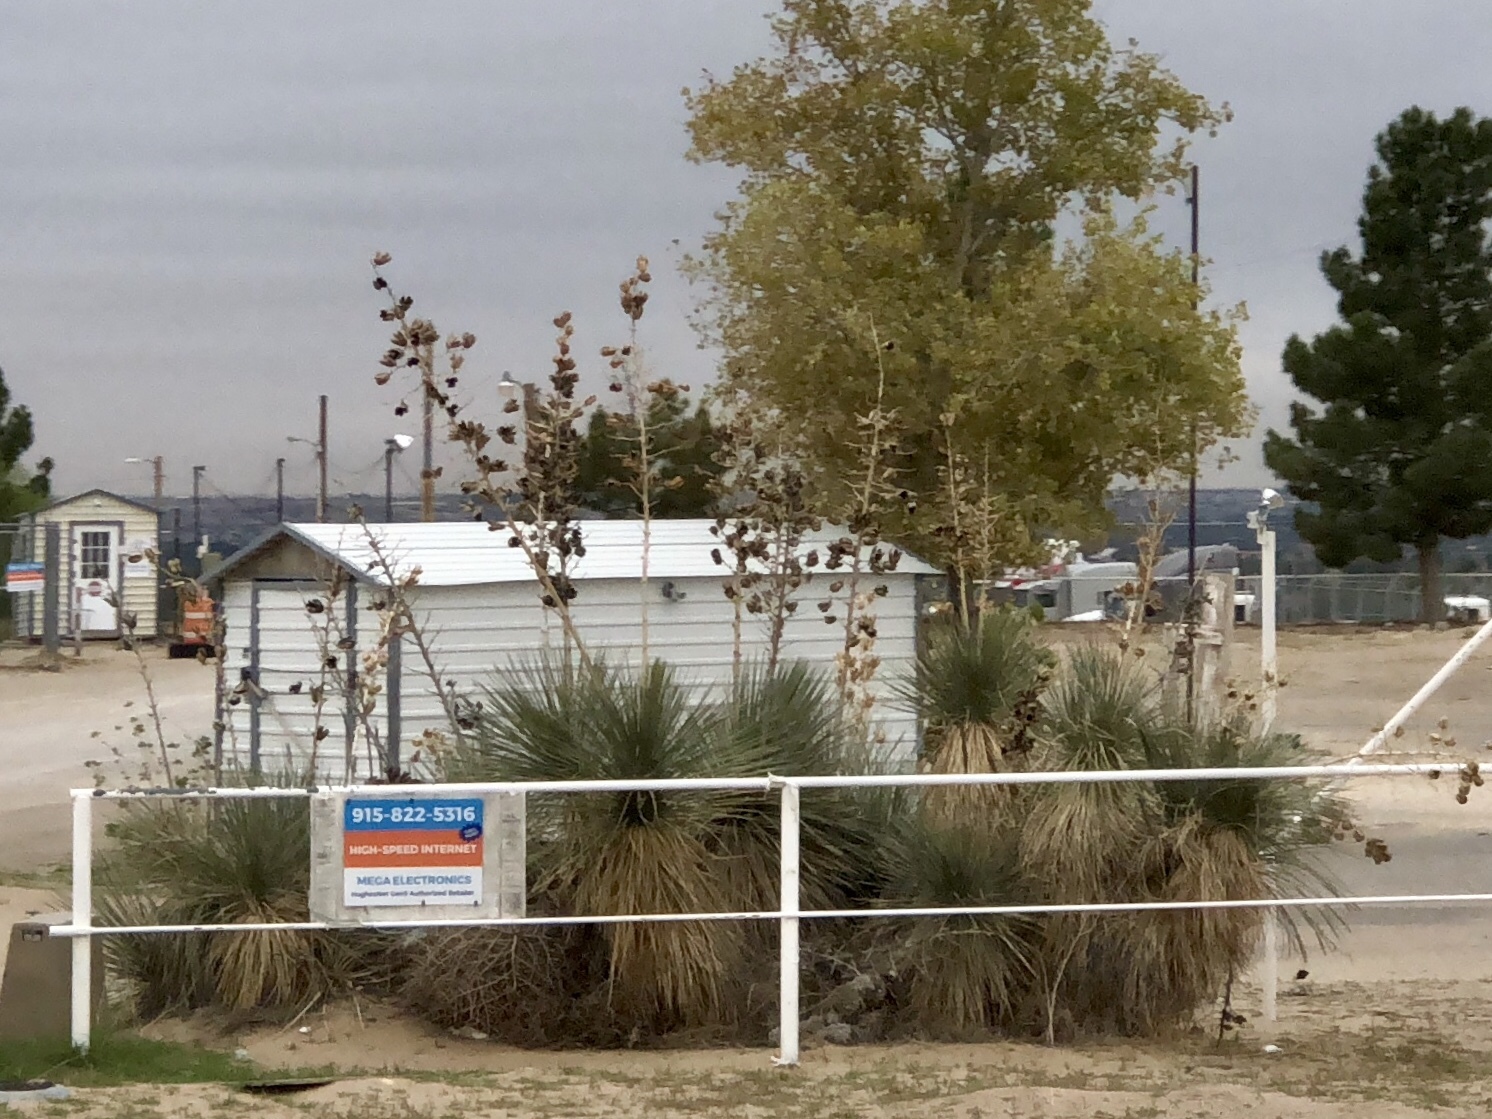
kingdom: Plantae
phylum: Tracheophyta
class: Liliopsida
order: Asparagales
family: Asparagaceae
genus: Yucca
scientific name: Yucca elata
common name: Palmella
